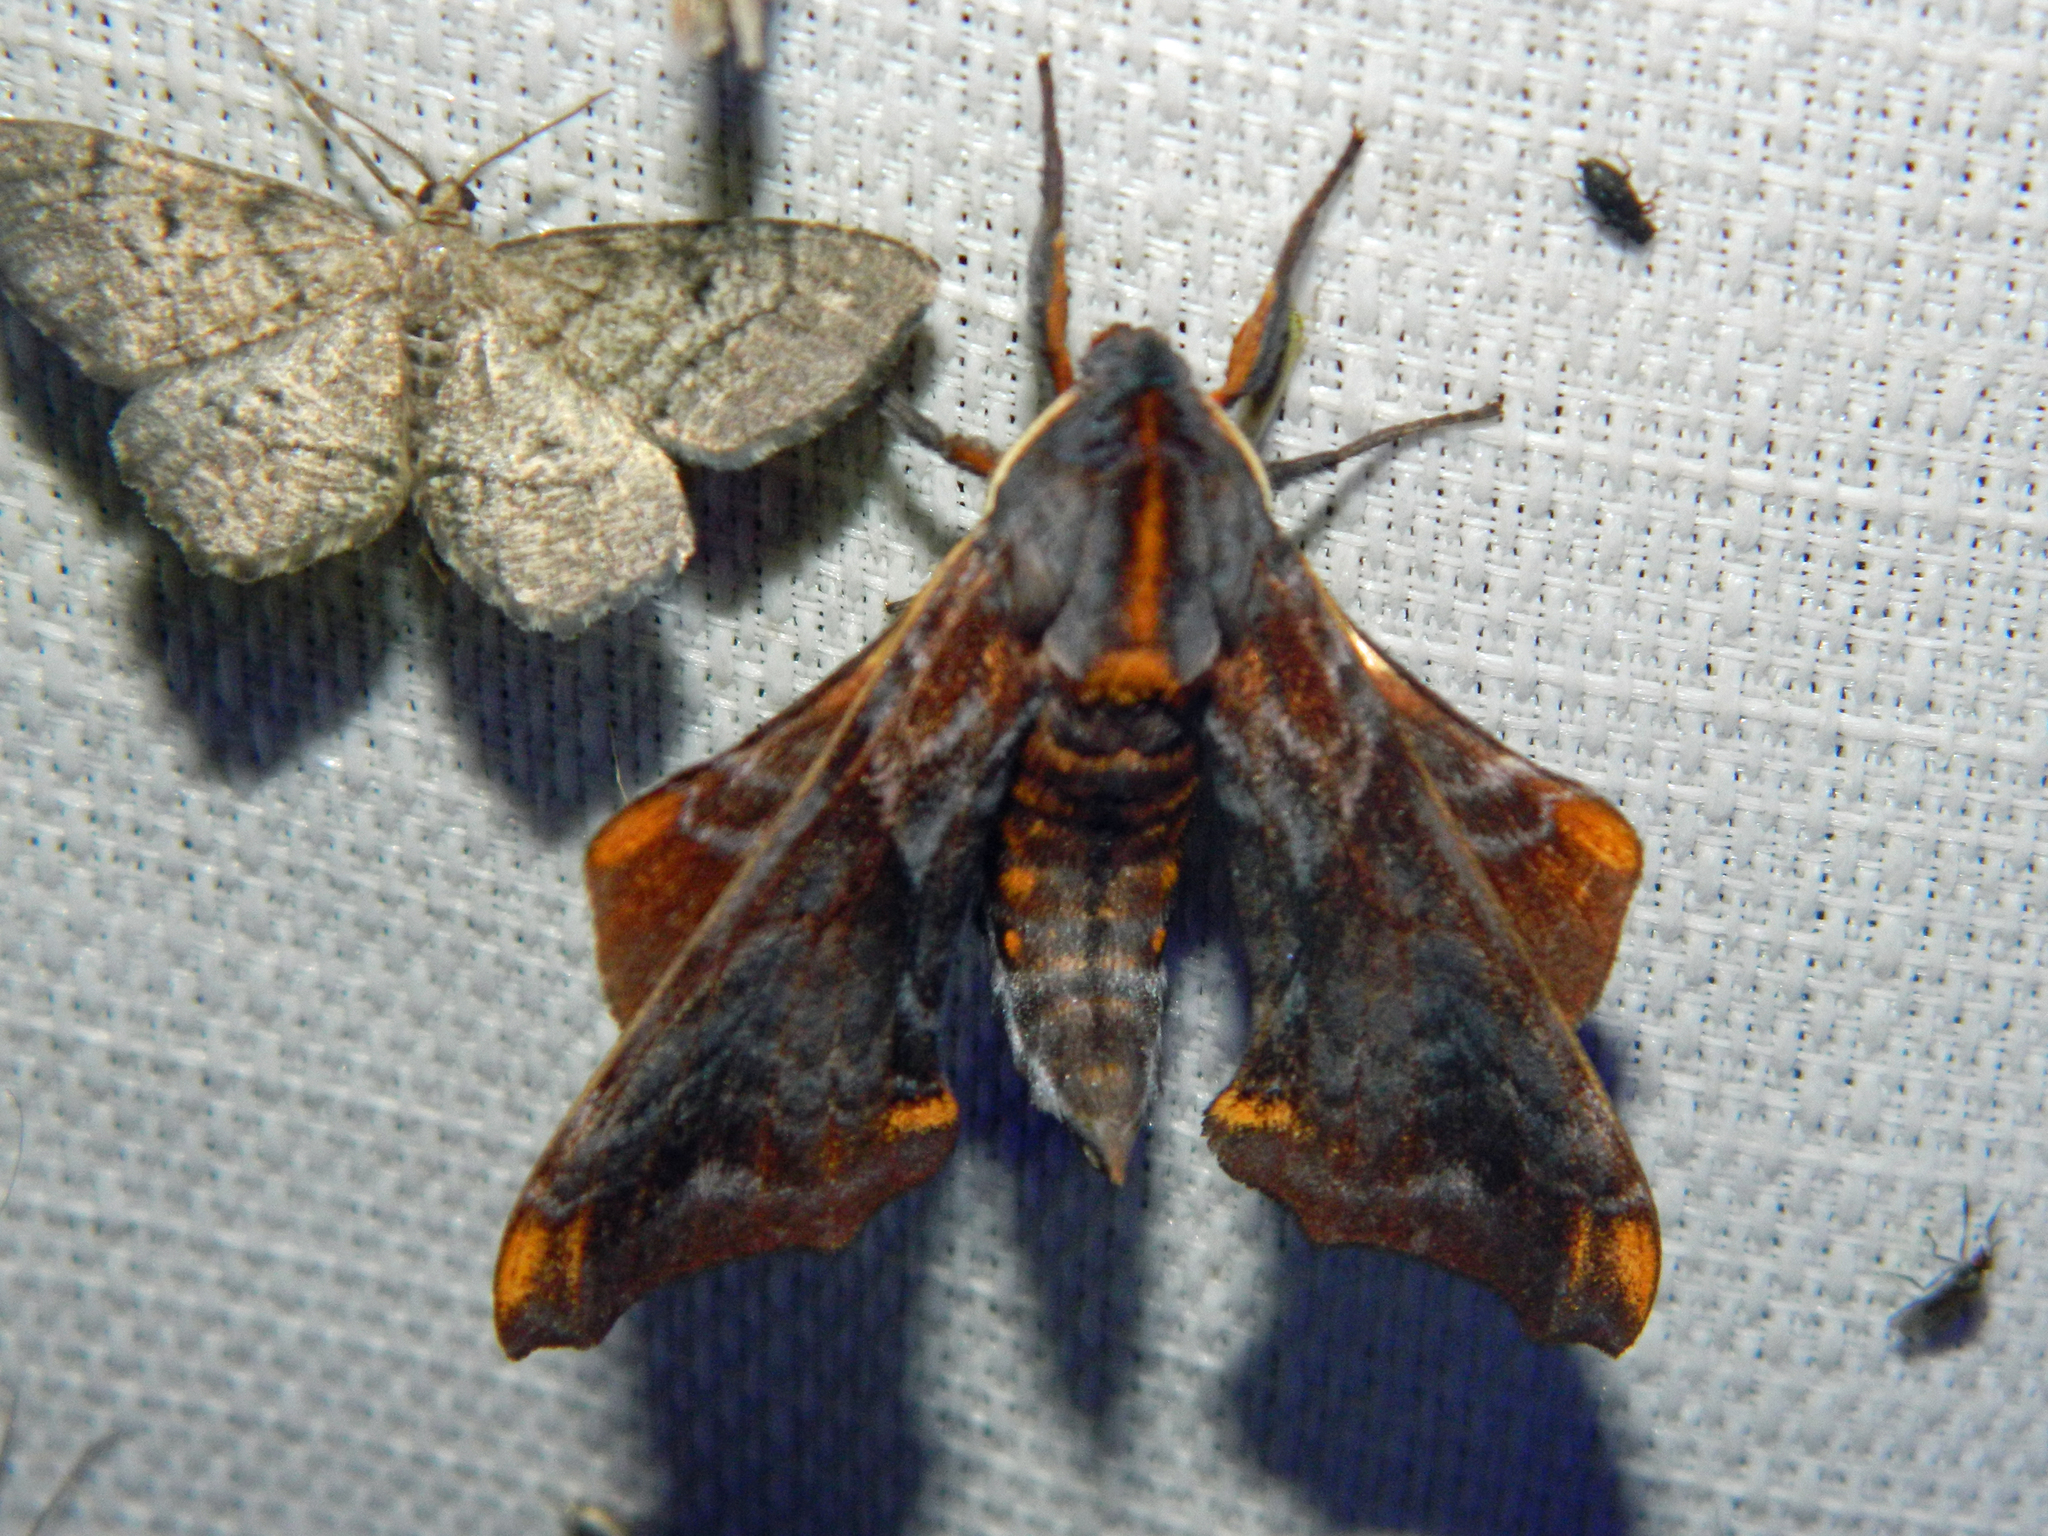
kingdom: Animalia
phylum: Arthropoda
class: Insecta
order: Lepidoptera
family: Sphingidae
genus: Paonias
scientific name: Paonias myops
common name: Small-eyed sphinx
